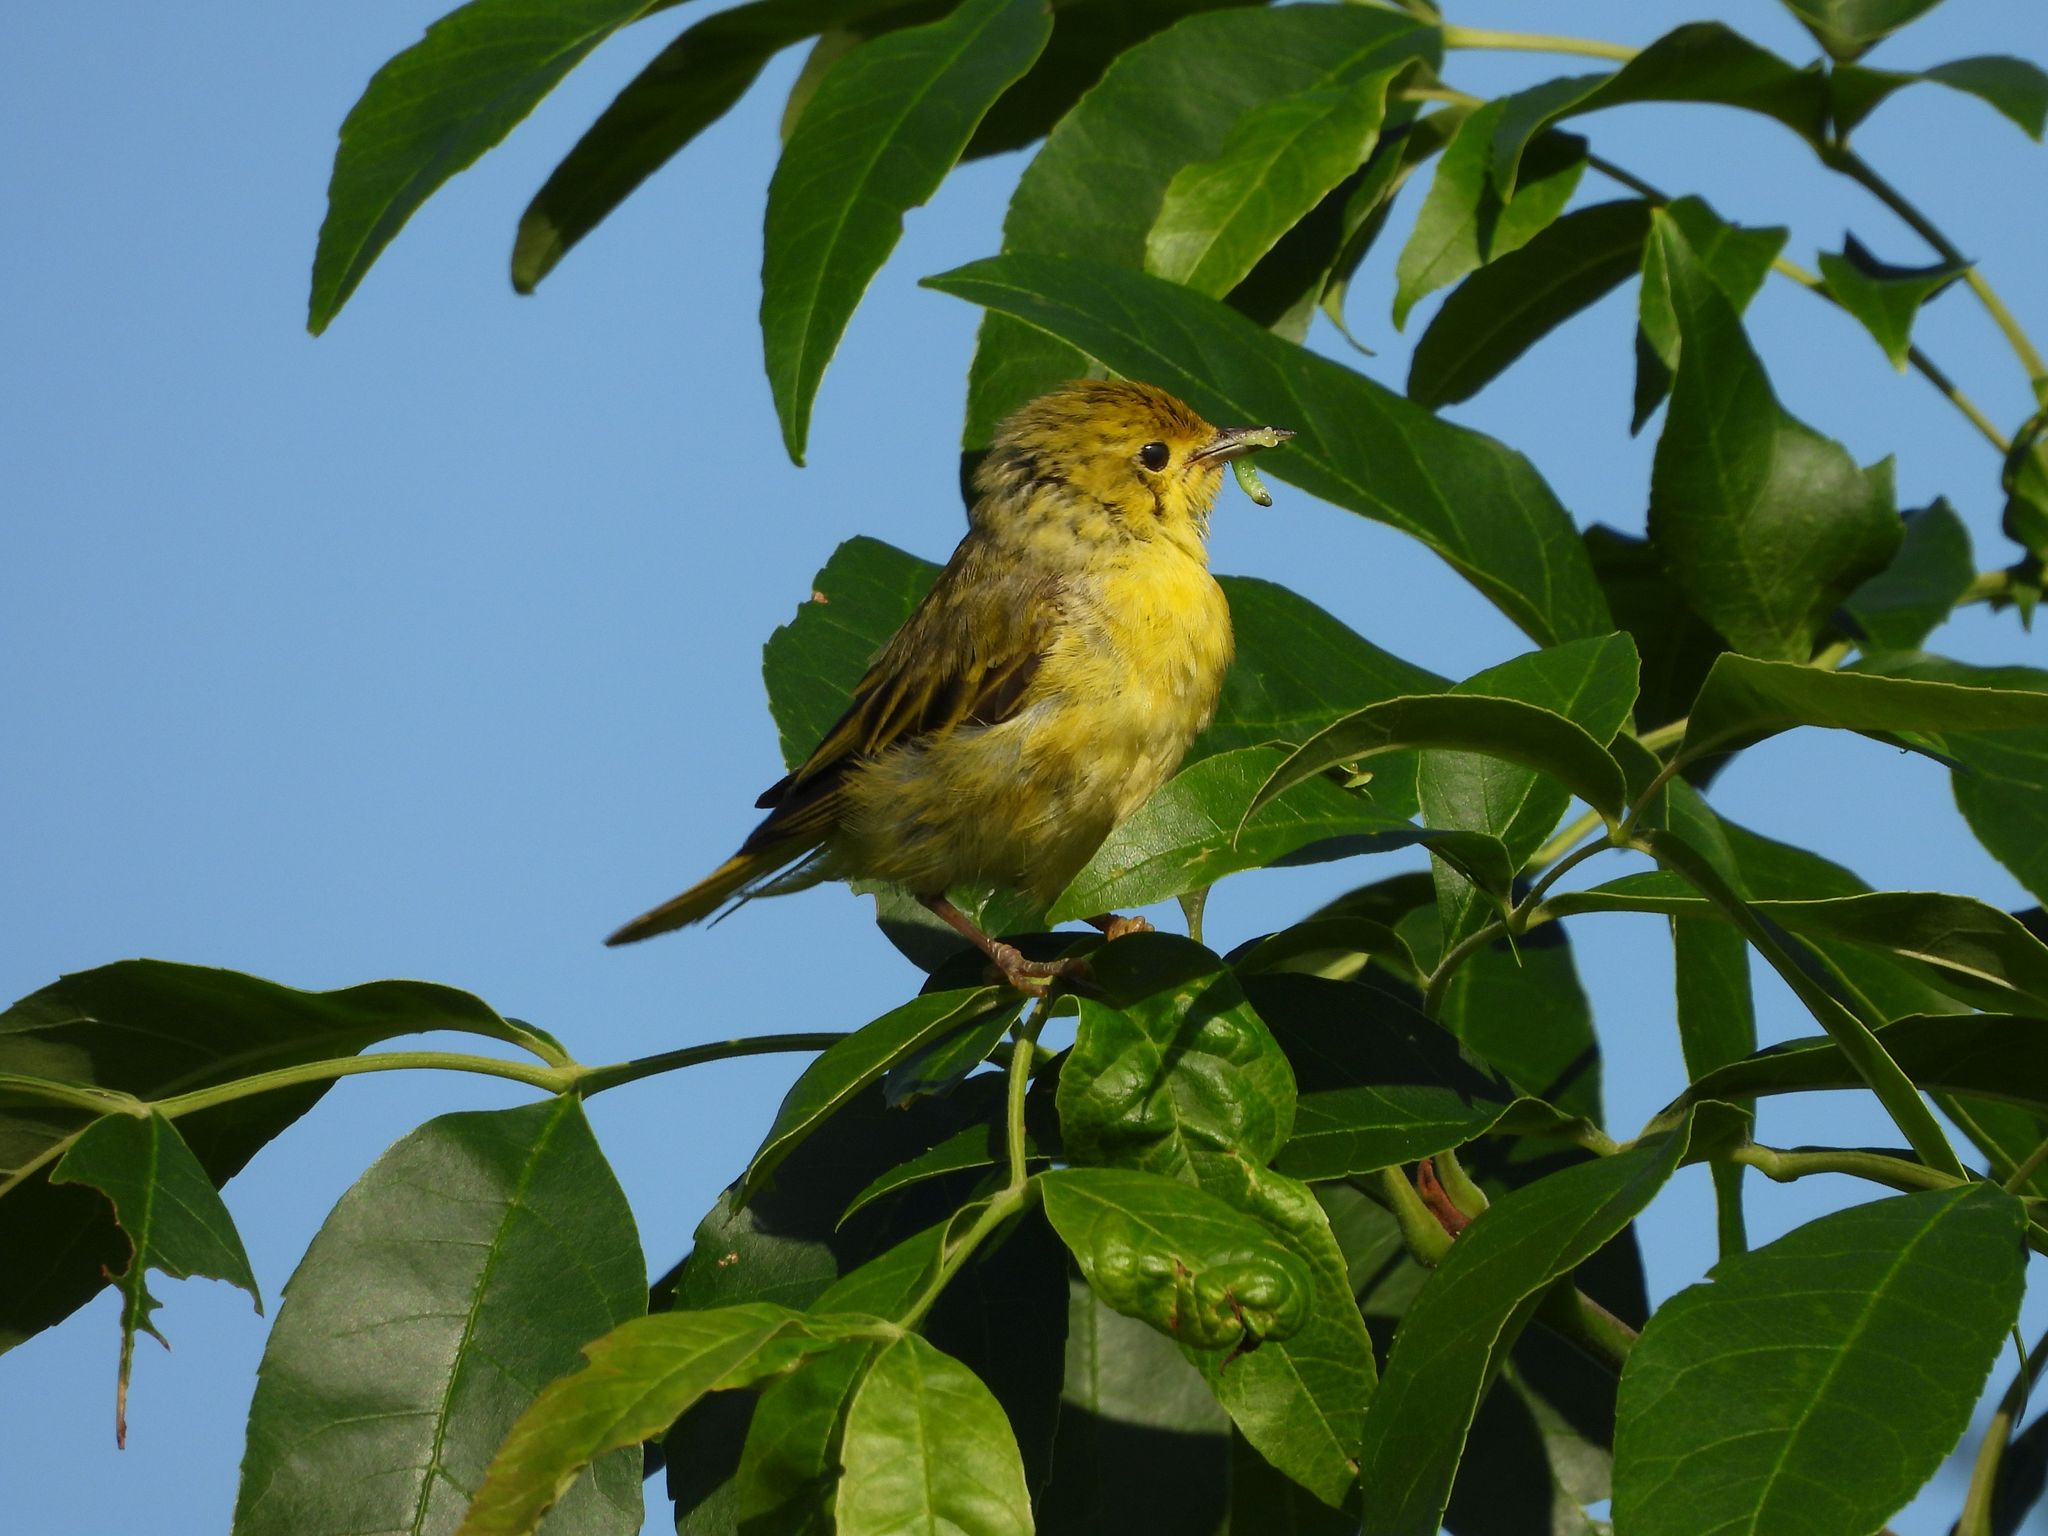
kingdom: Animalia
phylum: Chordata
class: Aves
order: Passeriformes
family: Parulidae
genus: Setophaga
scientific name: Setophaga petechia
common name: Yellow warbler
